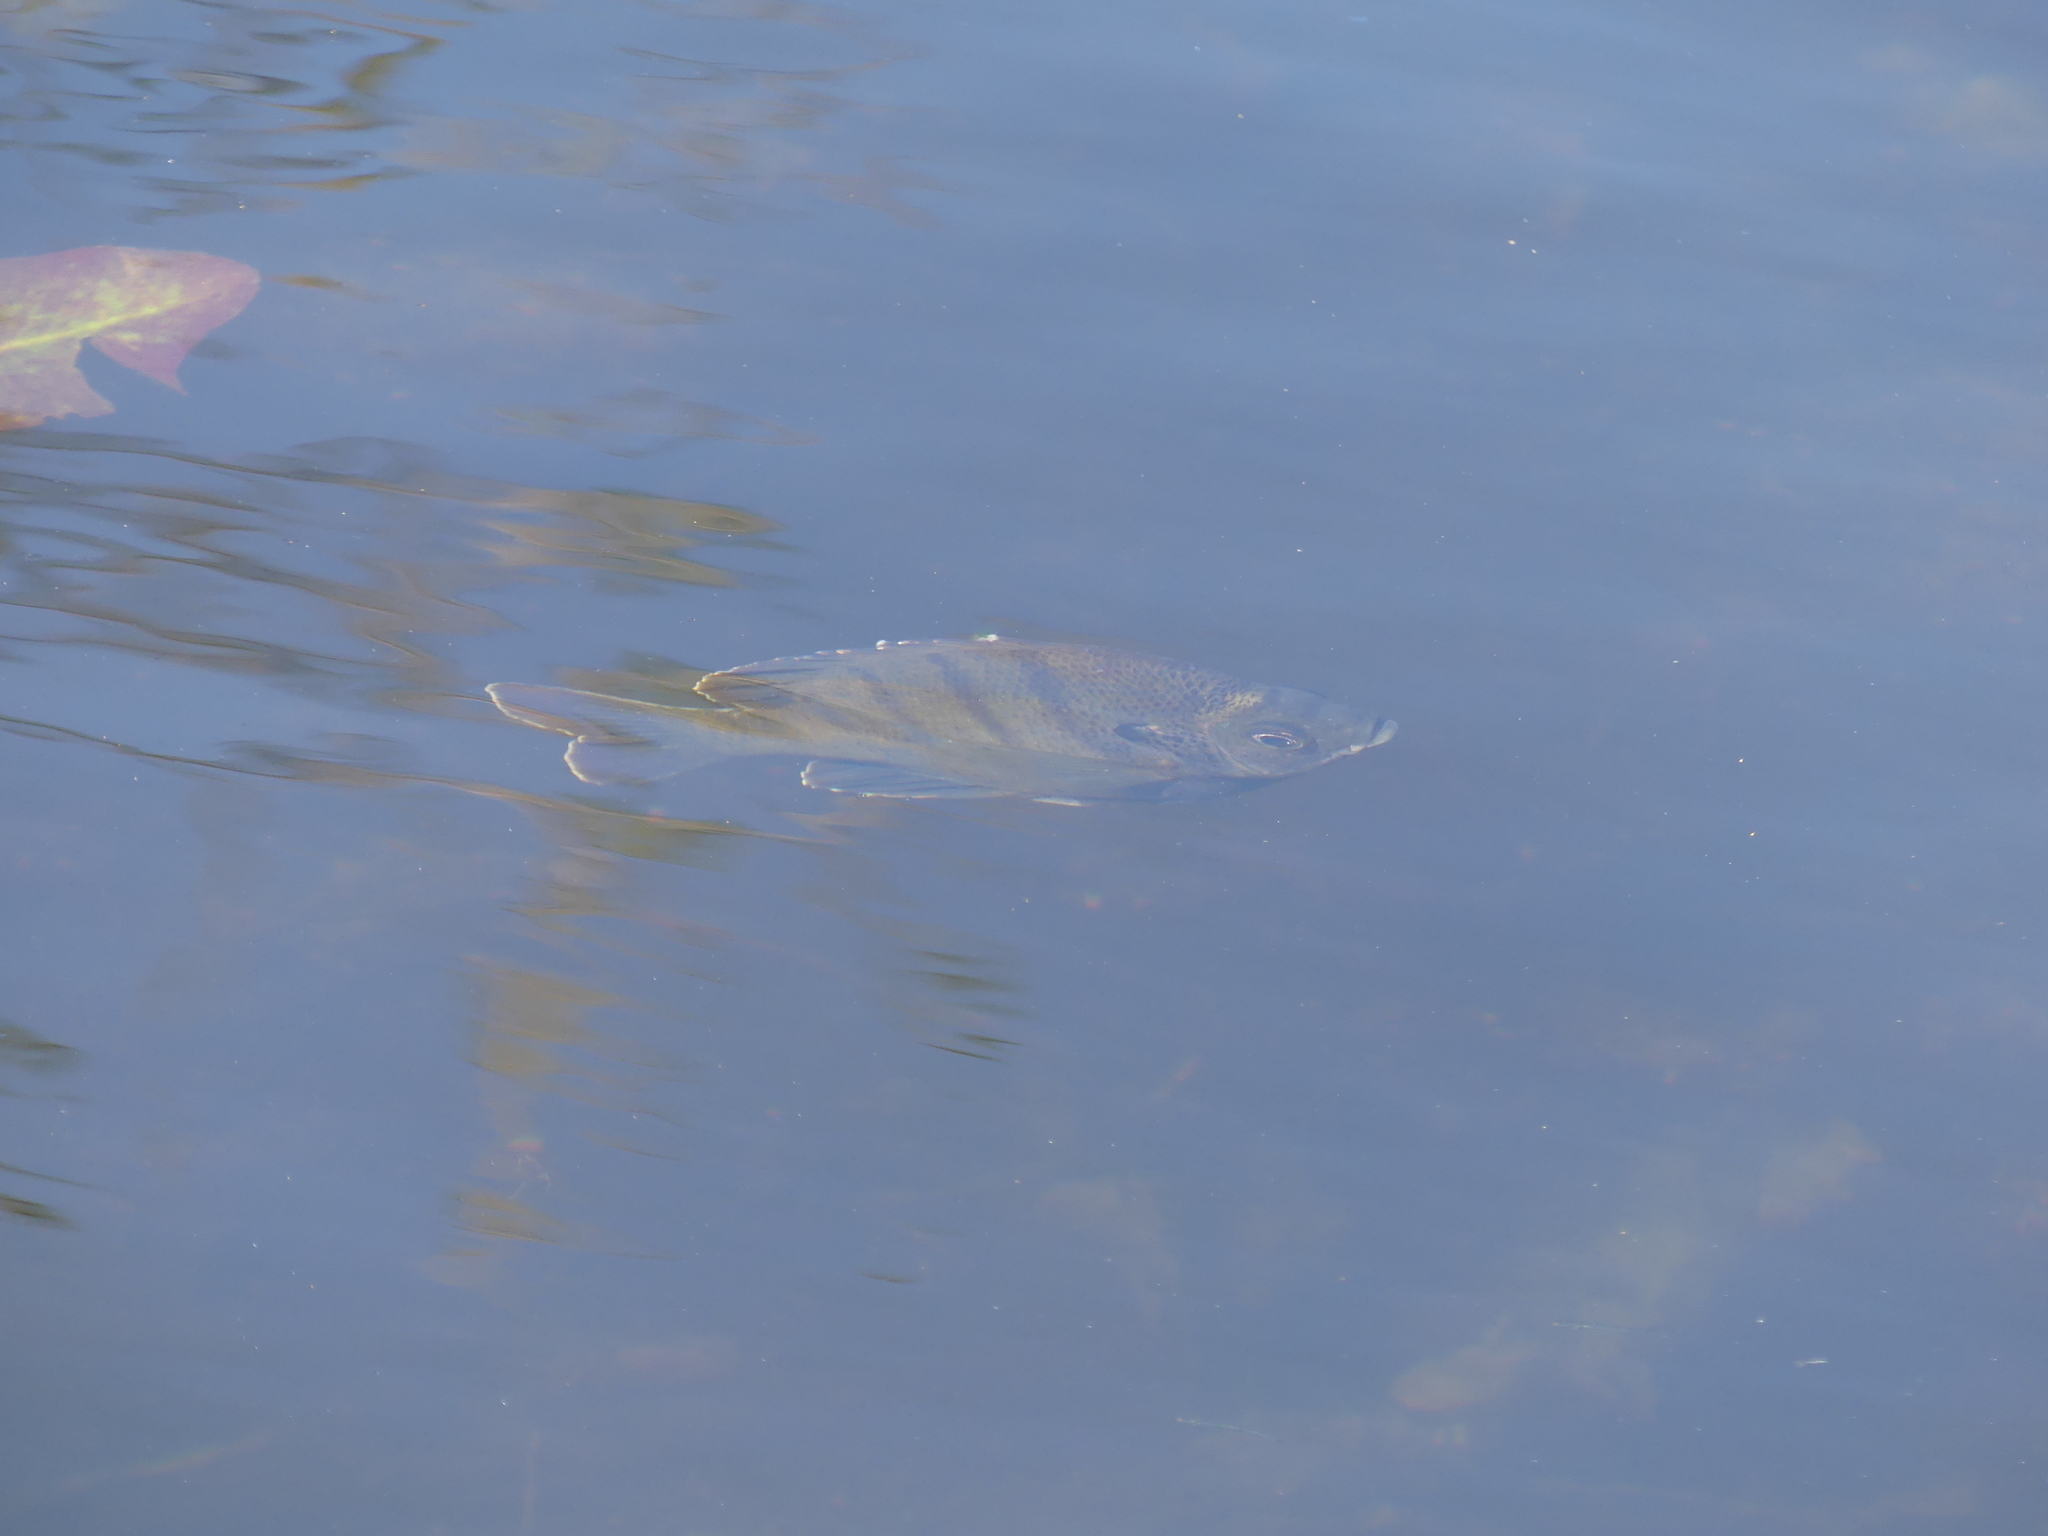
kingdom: Animalia
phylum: Chordata
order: Perciformes
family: Centrarchidae
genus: Lepomis
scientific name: Lepomis macrochirus
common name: Bluegill
